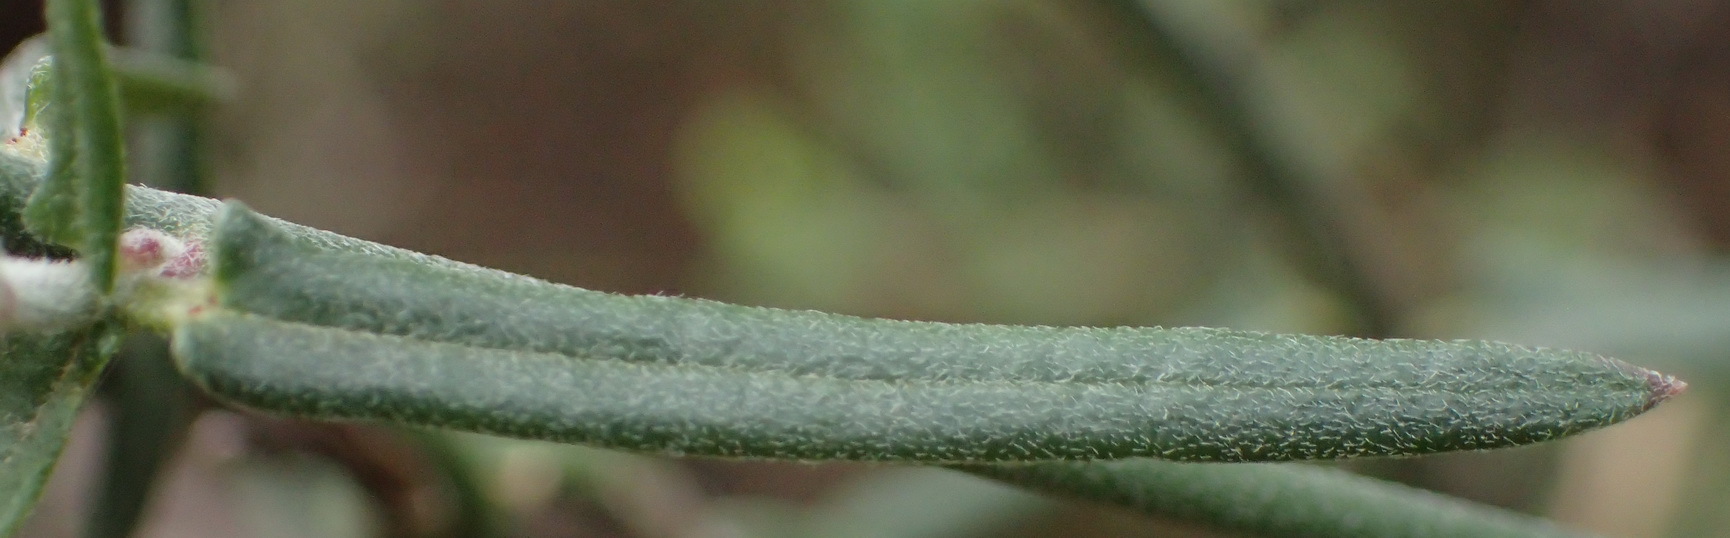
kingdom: Plantae
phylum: Tracheophyta
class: Magnoliopsida
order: Gentianales
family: Apocynaceae
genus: Microloma
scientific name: Microloma sagittatum
